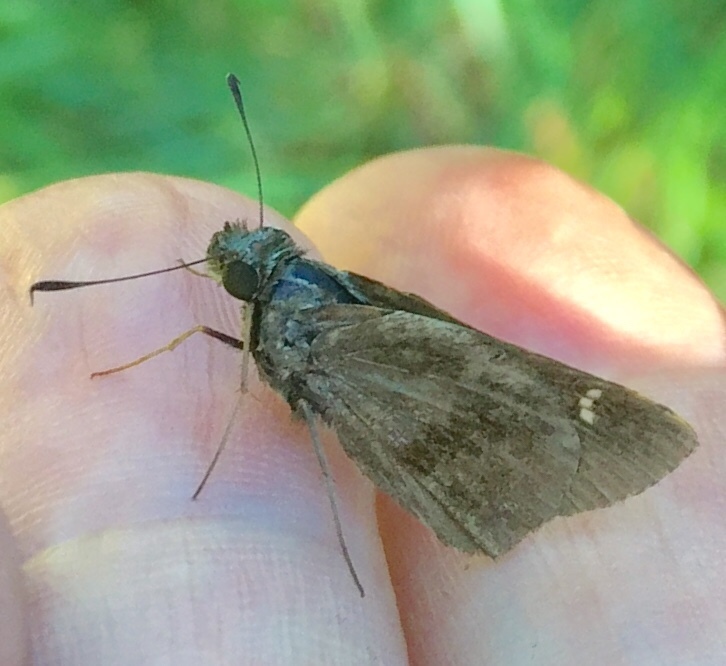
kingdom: Animalia
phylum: Arthropoda
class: Insecta
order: Lepidoptera
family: Hesperiidae
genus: Lerema
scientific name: Lerema accius
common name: Clouded skipper
